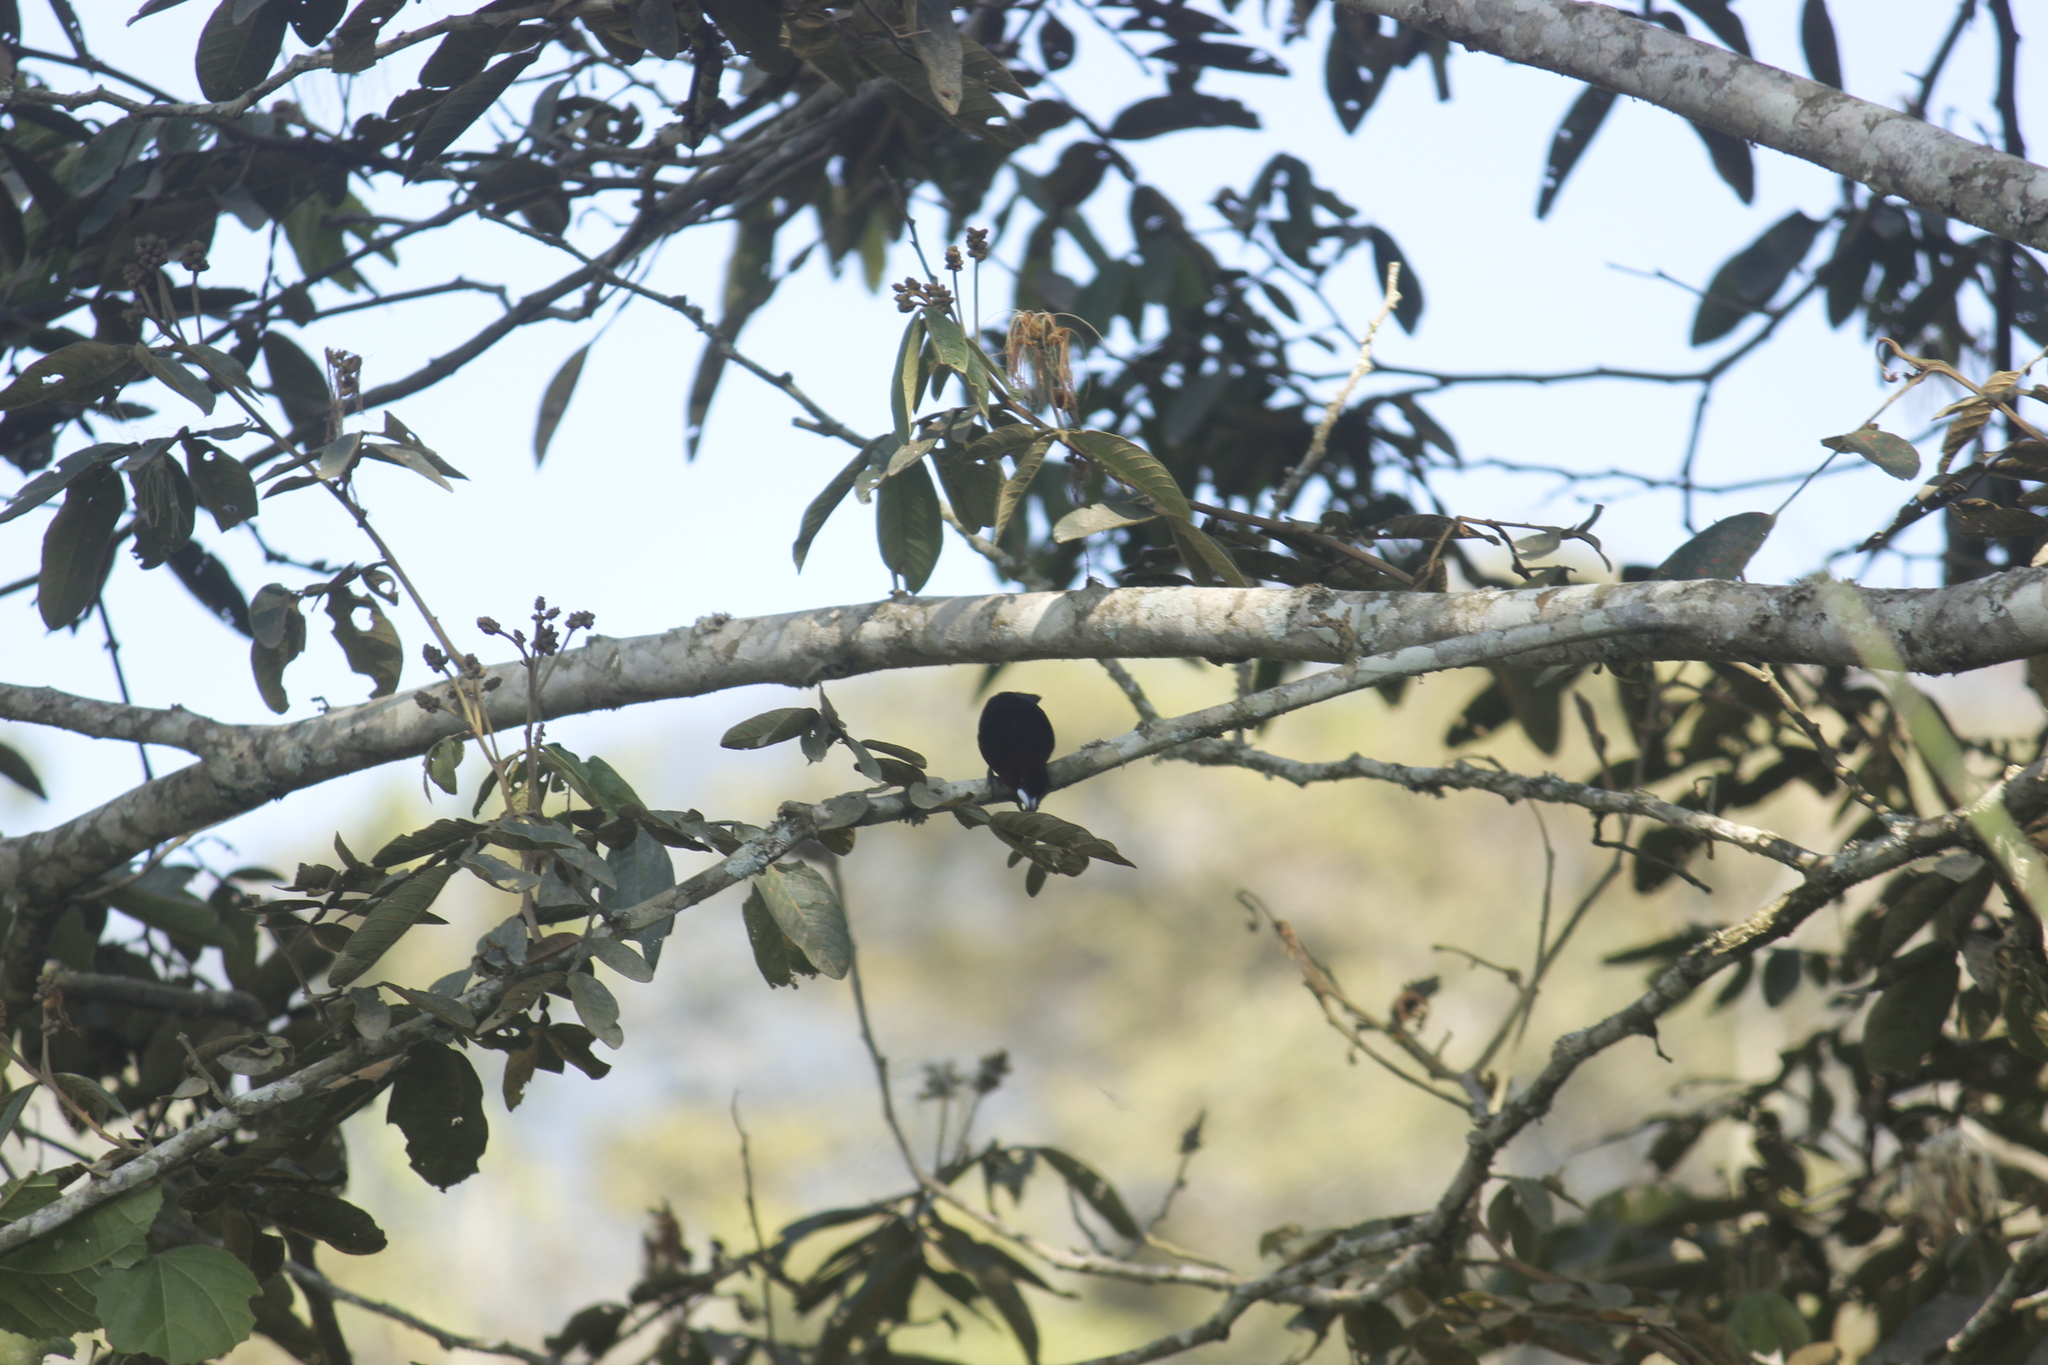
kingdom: Animalia
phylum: Chordata
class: Aves
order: Passeriformes
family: Thraupidae
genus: Ramphocelus
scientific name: Ramphocelus carbo
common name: Silver-beaked tanager
